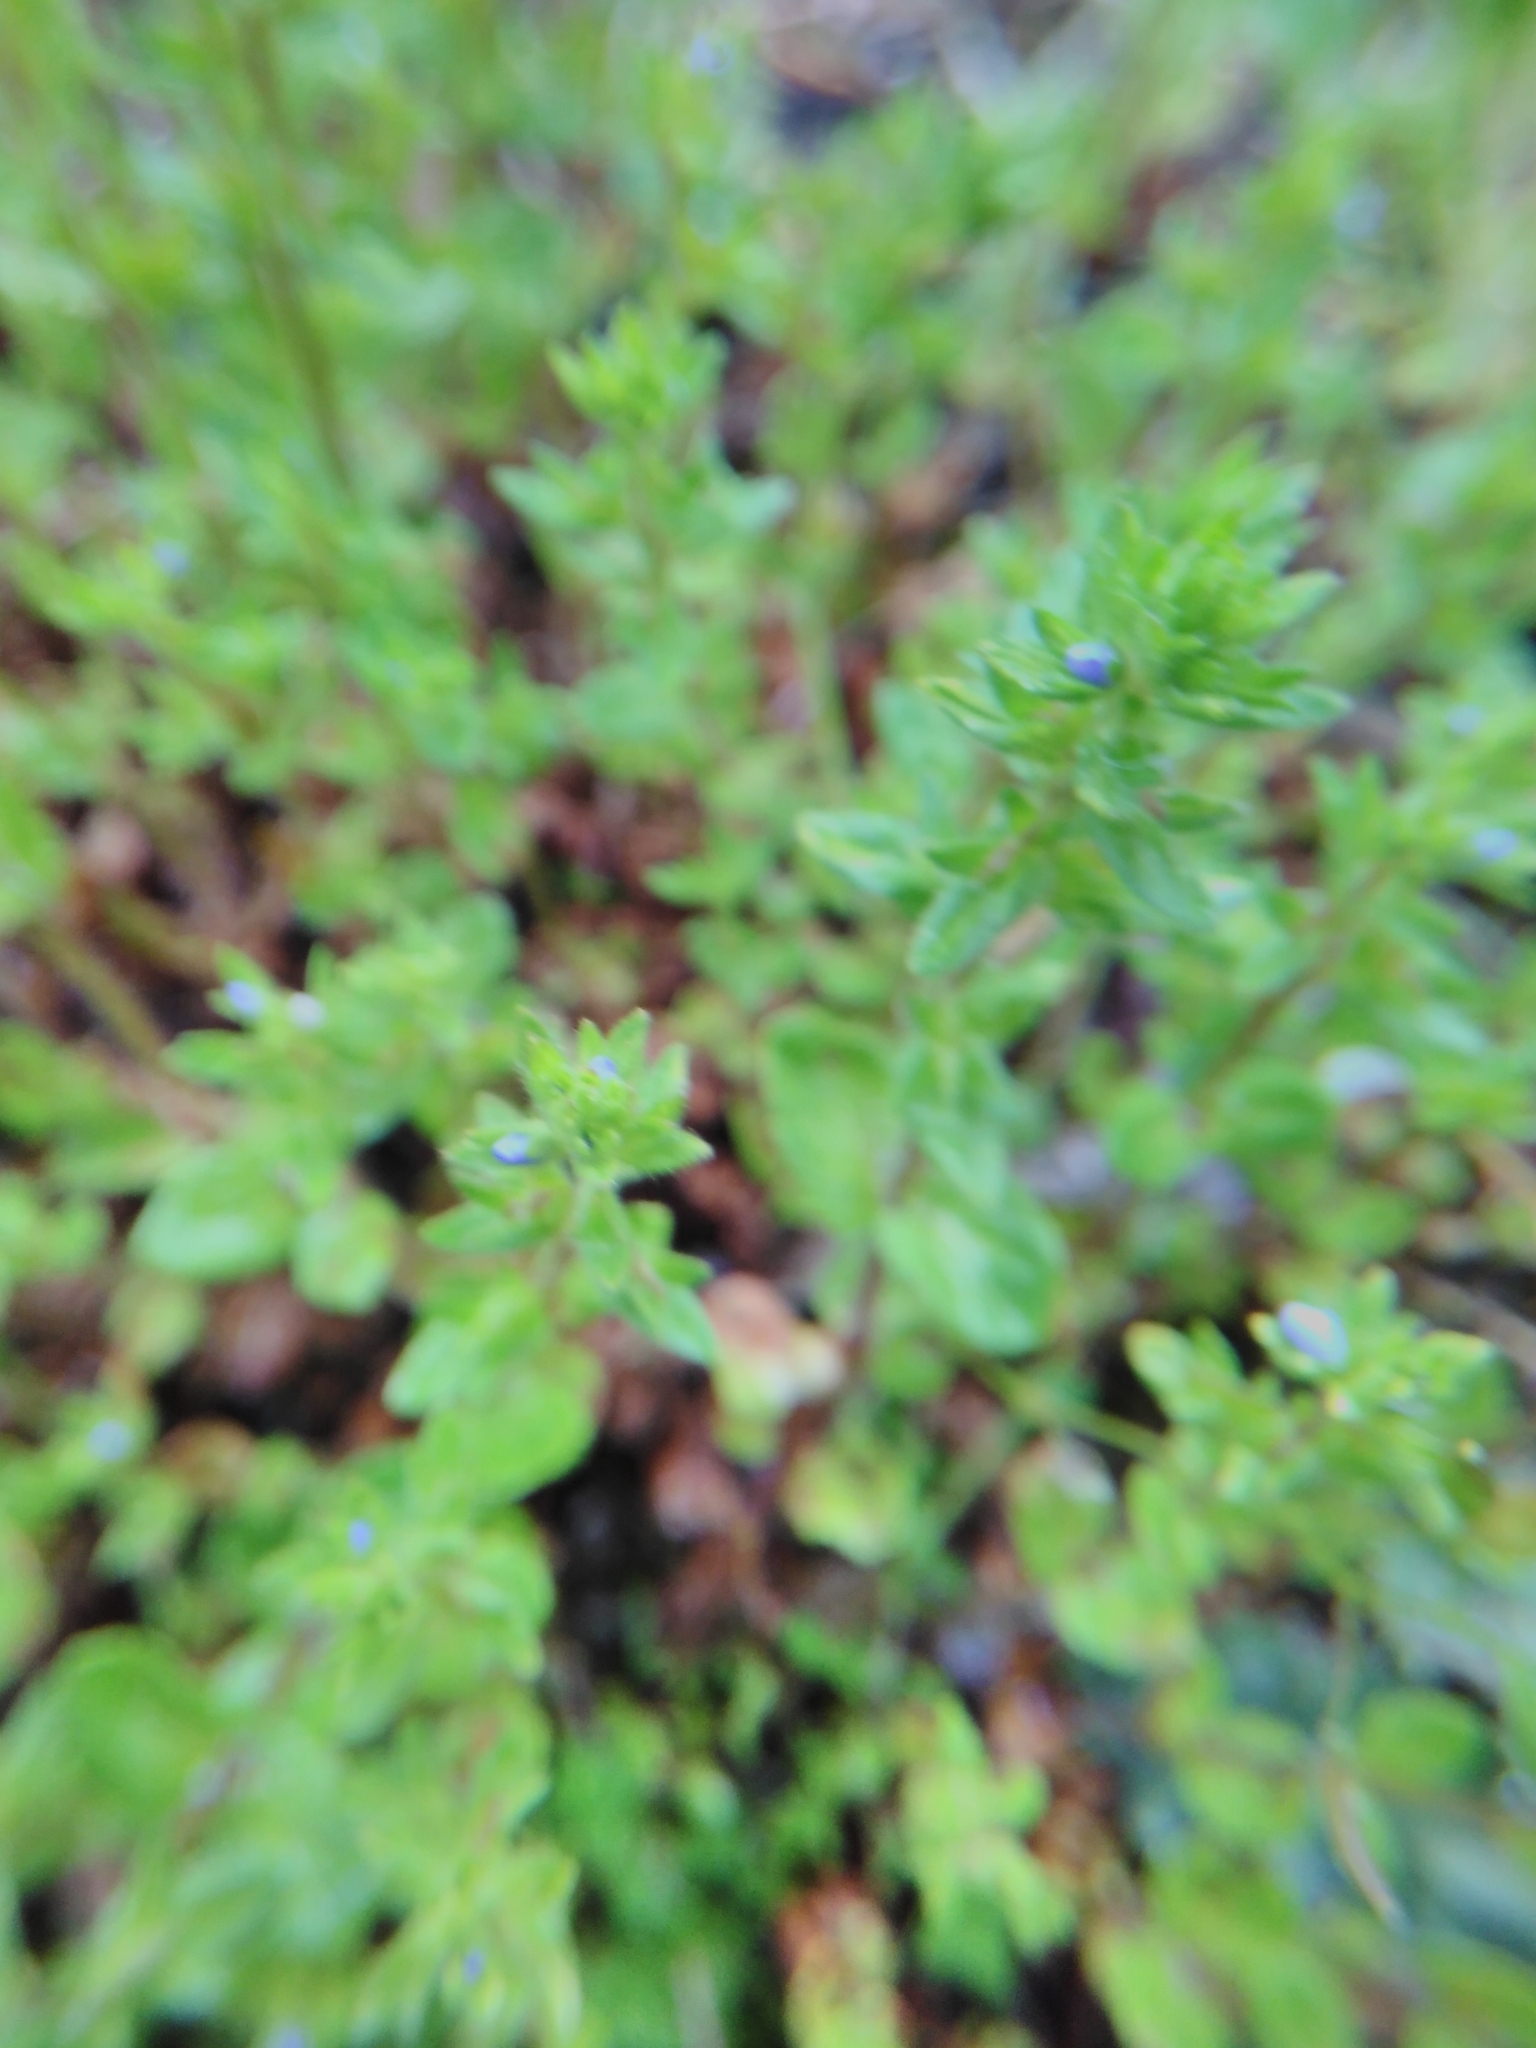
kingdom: Plantae
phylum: Tracheophyta
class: Magnoliopsida
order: Lamiales
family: Plantaginaceae
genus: Veronica
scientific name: Veronica arvensis
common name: Corn speedwell
